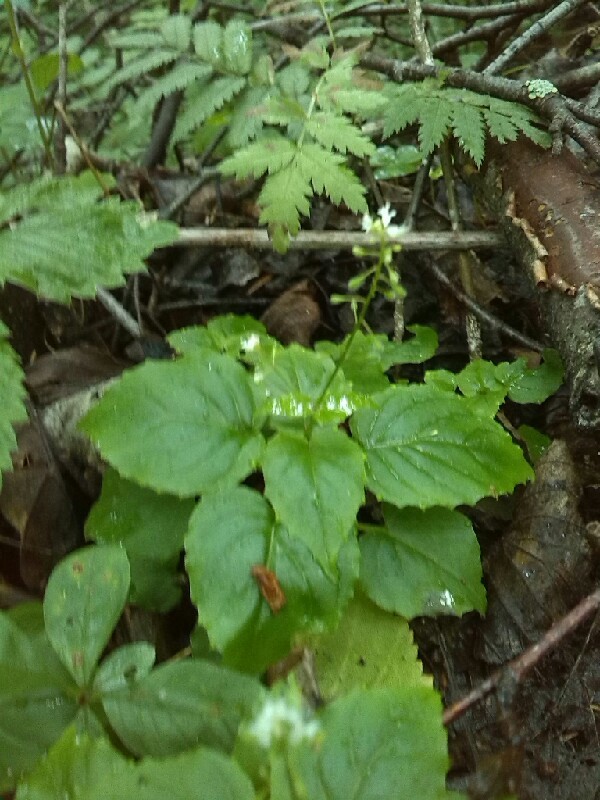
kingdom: Plantae
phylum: Tracheophyta
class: Magnoliopsida
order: Myrtales
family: Onagraceae
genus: Circaea
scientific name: Circaea alpina
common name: Alpine enchanter's-nightshade
